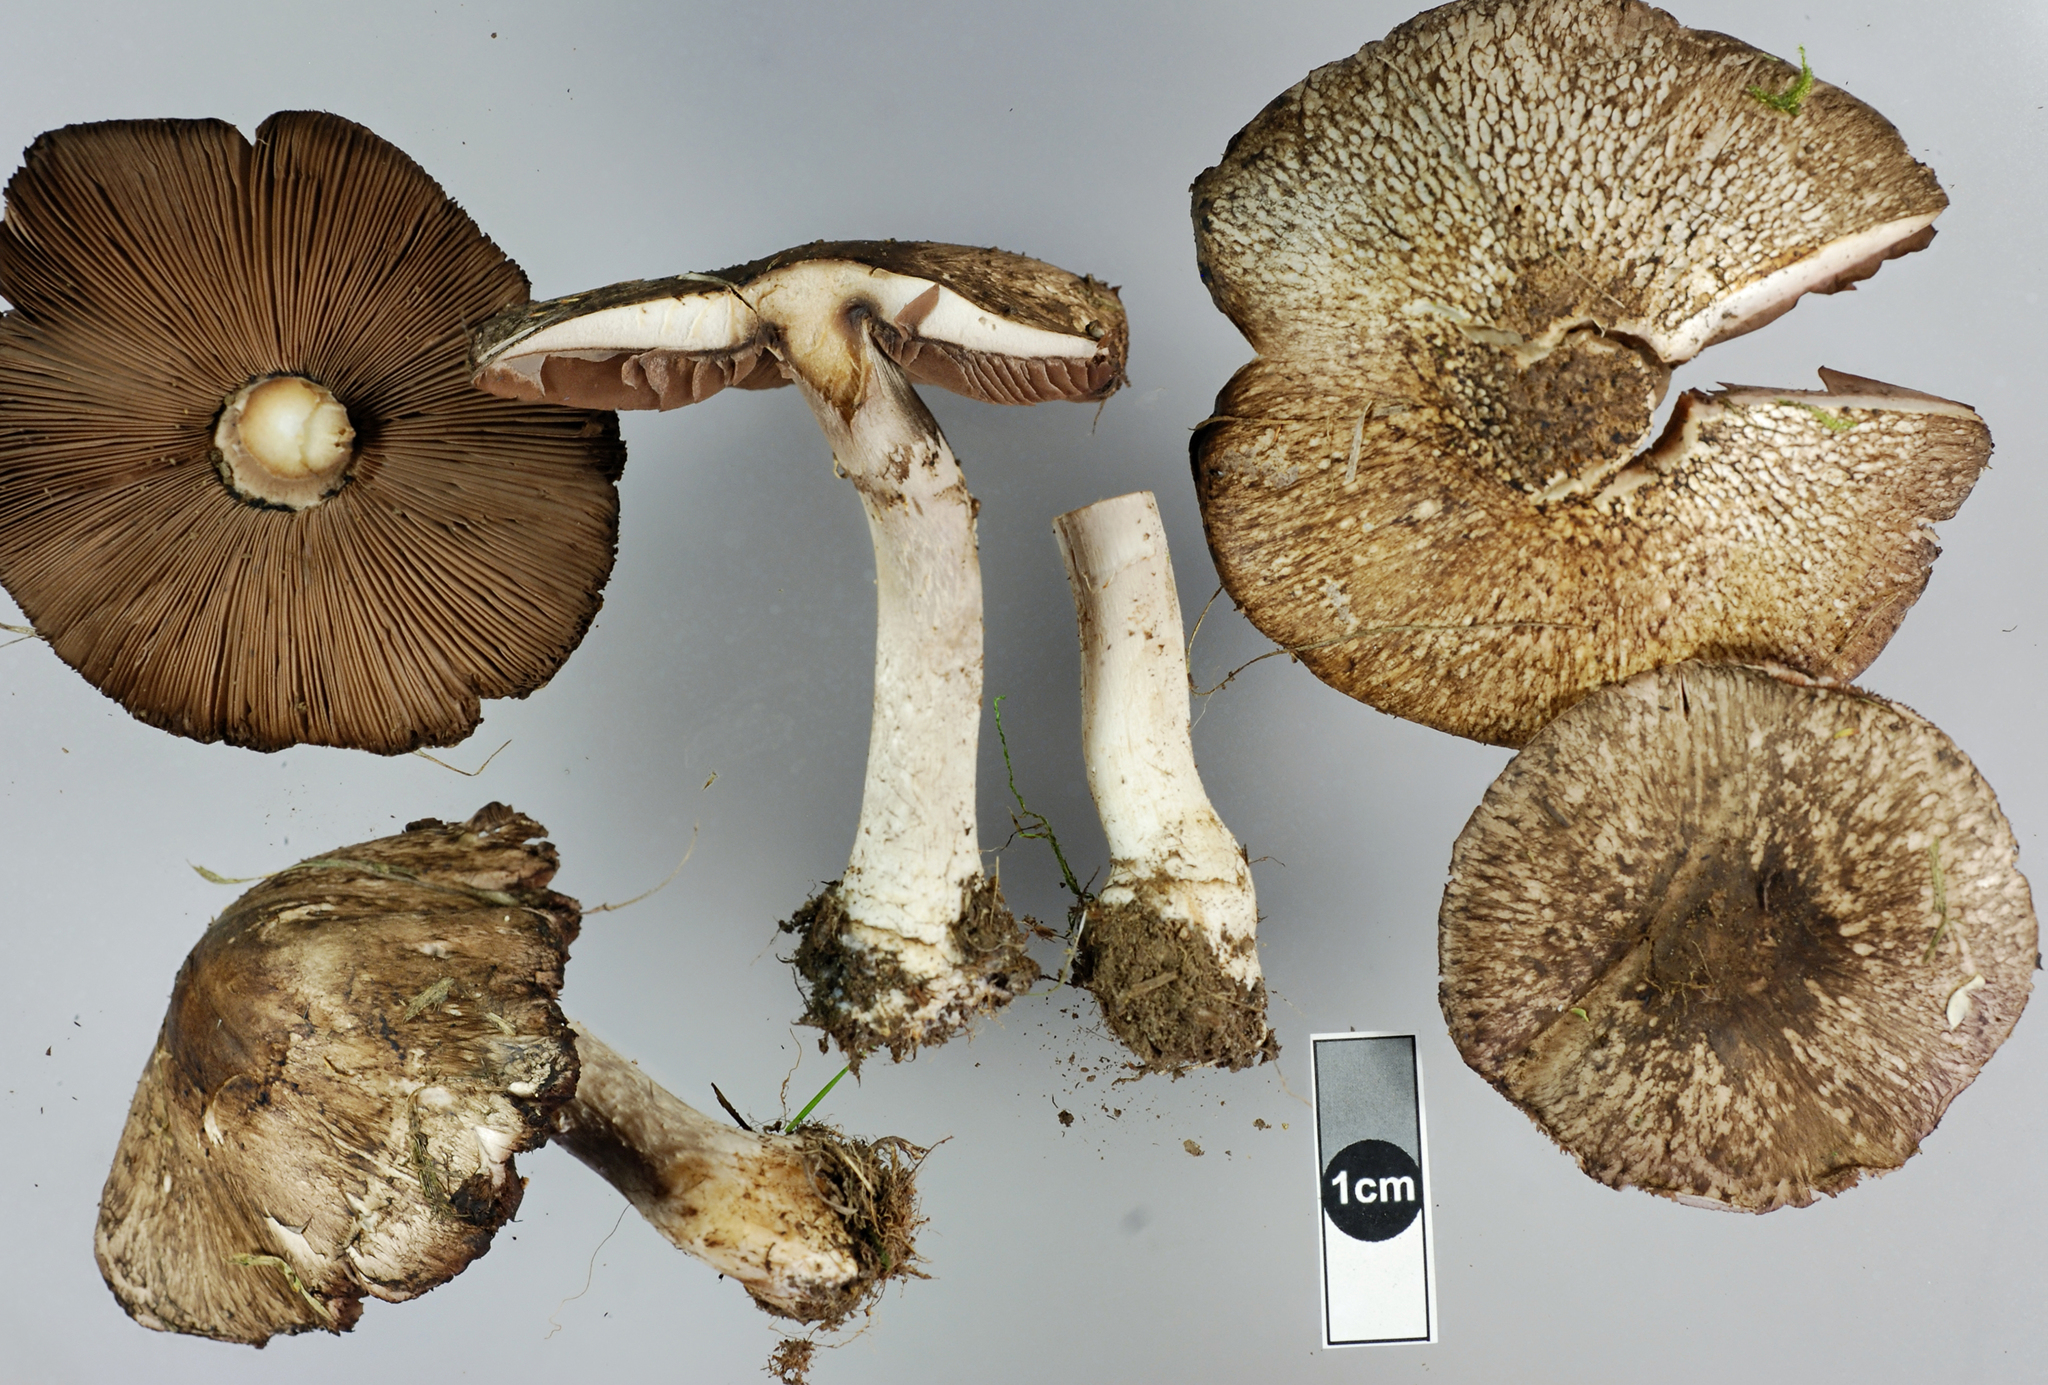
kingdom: Fungi
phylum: Basidiomycota
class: Agaricomycetes
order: Agaricales
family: Agaricaceae
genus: Agaricus
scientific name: Agaricus horakii
